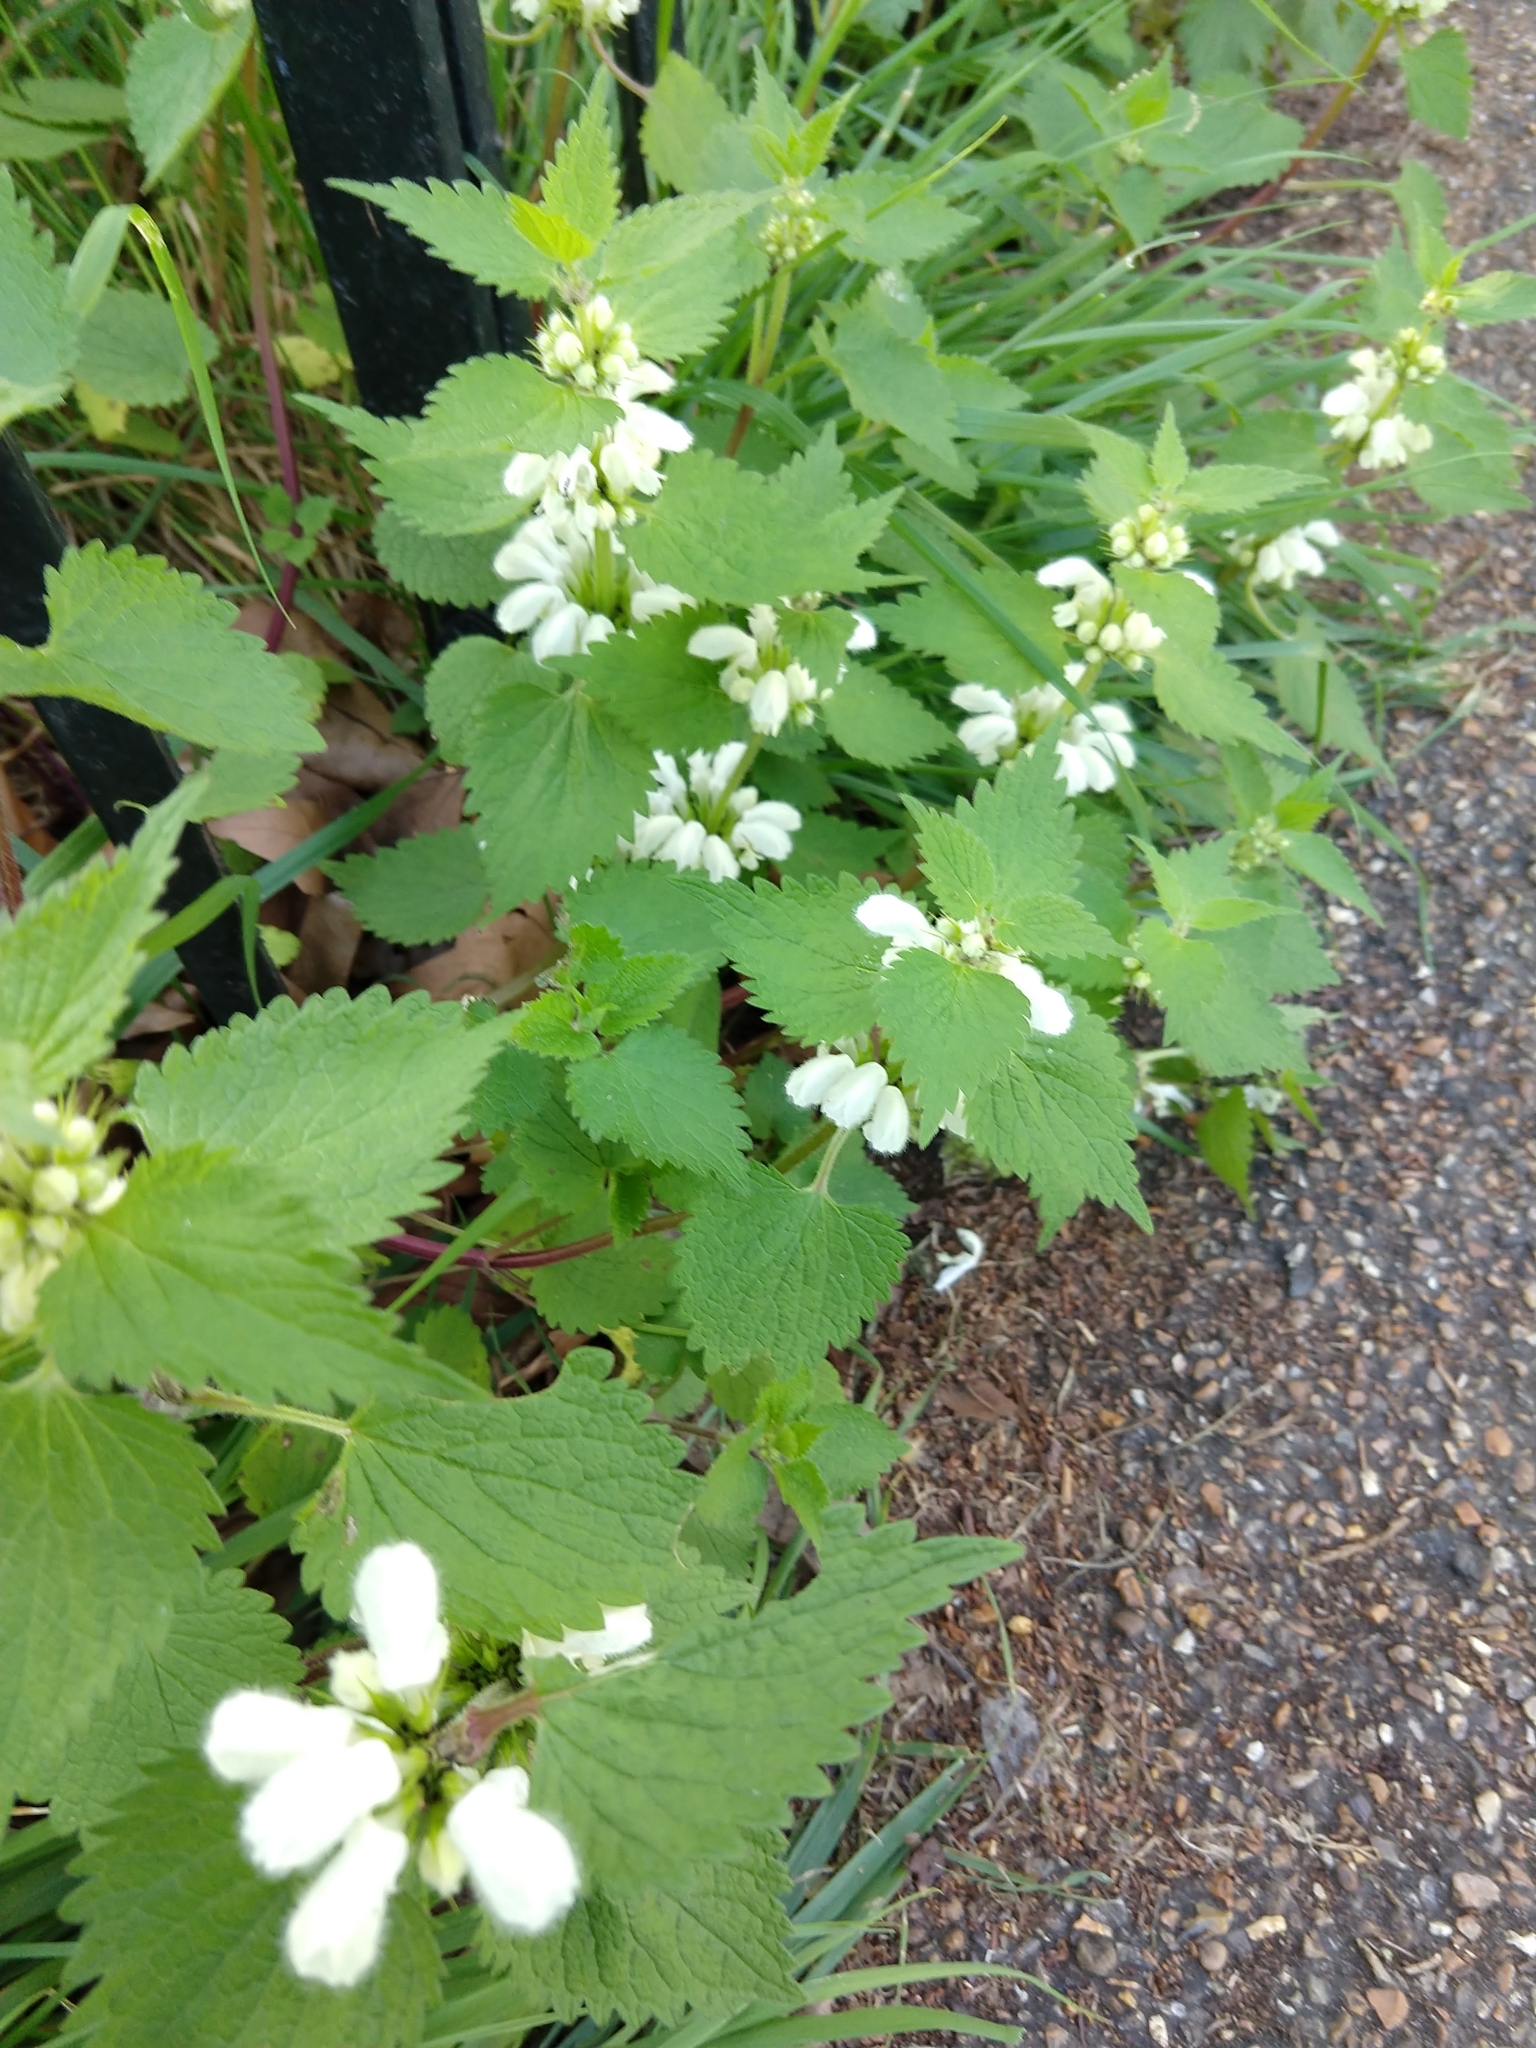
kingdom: Plantae
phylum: Tracheophyta
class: Magnoliopsida
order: Lamiales
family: Lamiaceae
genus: Lamium
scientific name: Lamium album
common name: White dead-nettle
